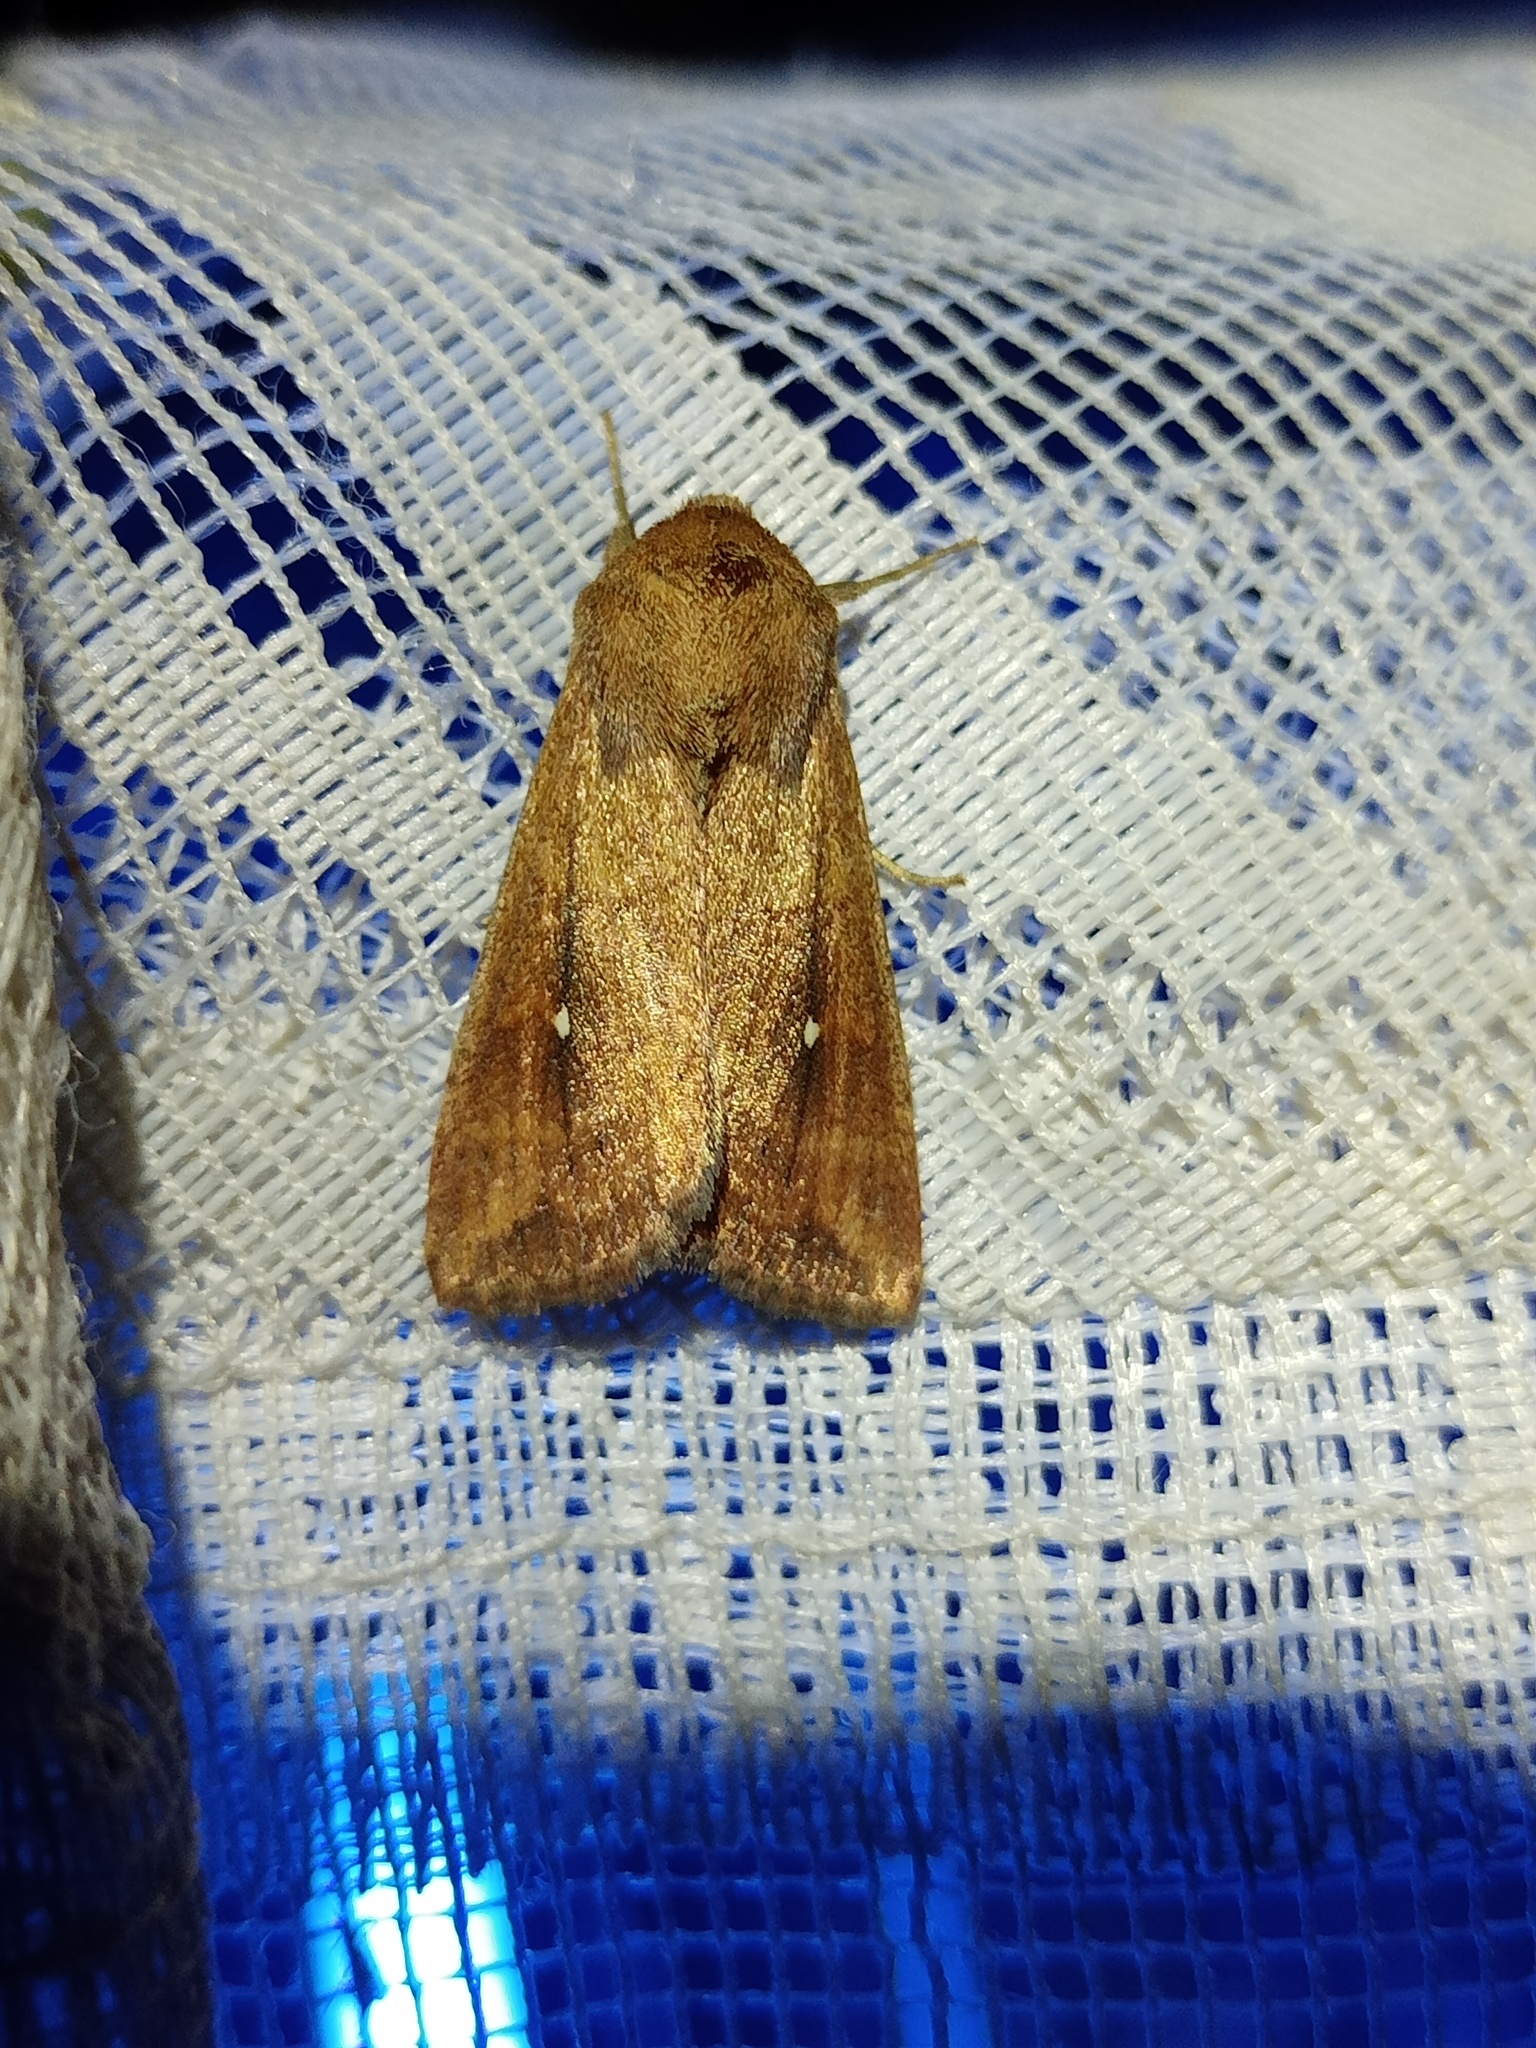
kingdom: Animalia
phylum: Arthropoda
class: Insecta
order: Lepidoptera
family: Noctuidae
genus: Mythimna
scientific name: Mythimna albipuncta
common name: White-point
